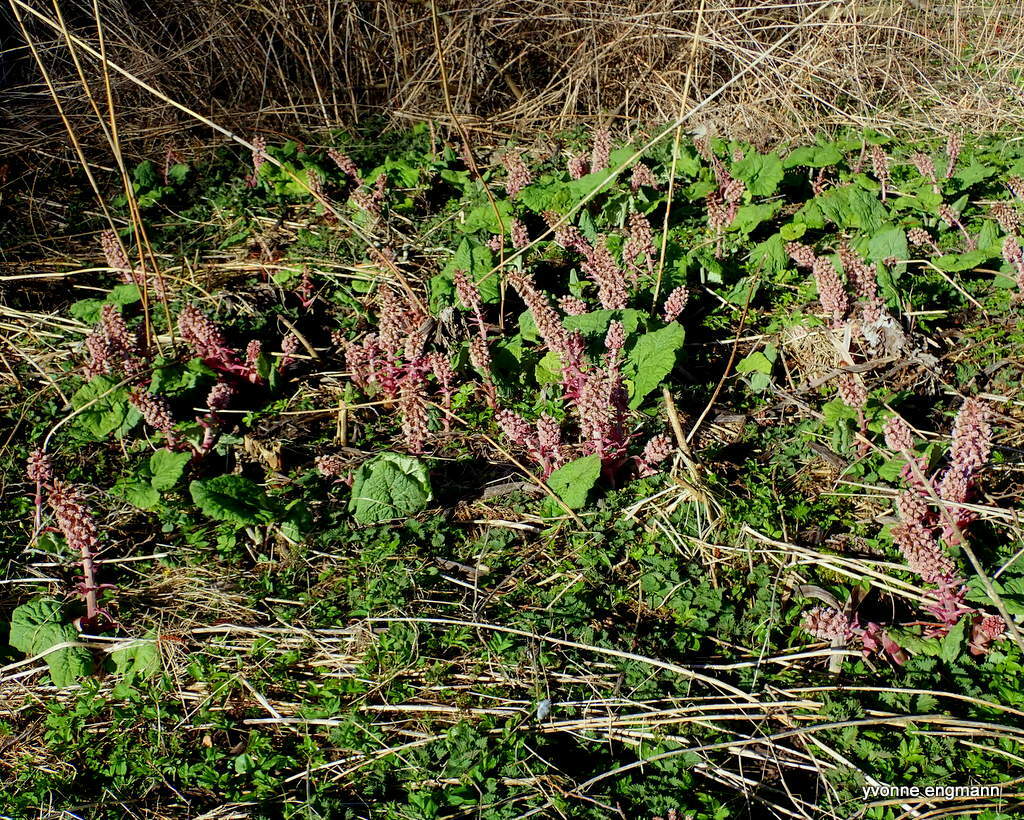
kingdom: Plantae
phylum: Tracheophyta
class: Magnoliopsida
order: Asterales
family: Asteraceae
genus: Petasites
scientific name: Petasites hybridus
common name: Butterbur
